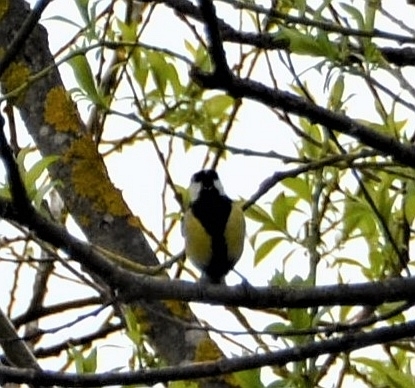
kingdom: Animalia
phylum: Chordata
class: Aves
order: Passeriformes
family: Paridae
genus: Parus
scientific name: Parus major
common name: Great tit
